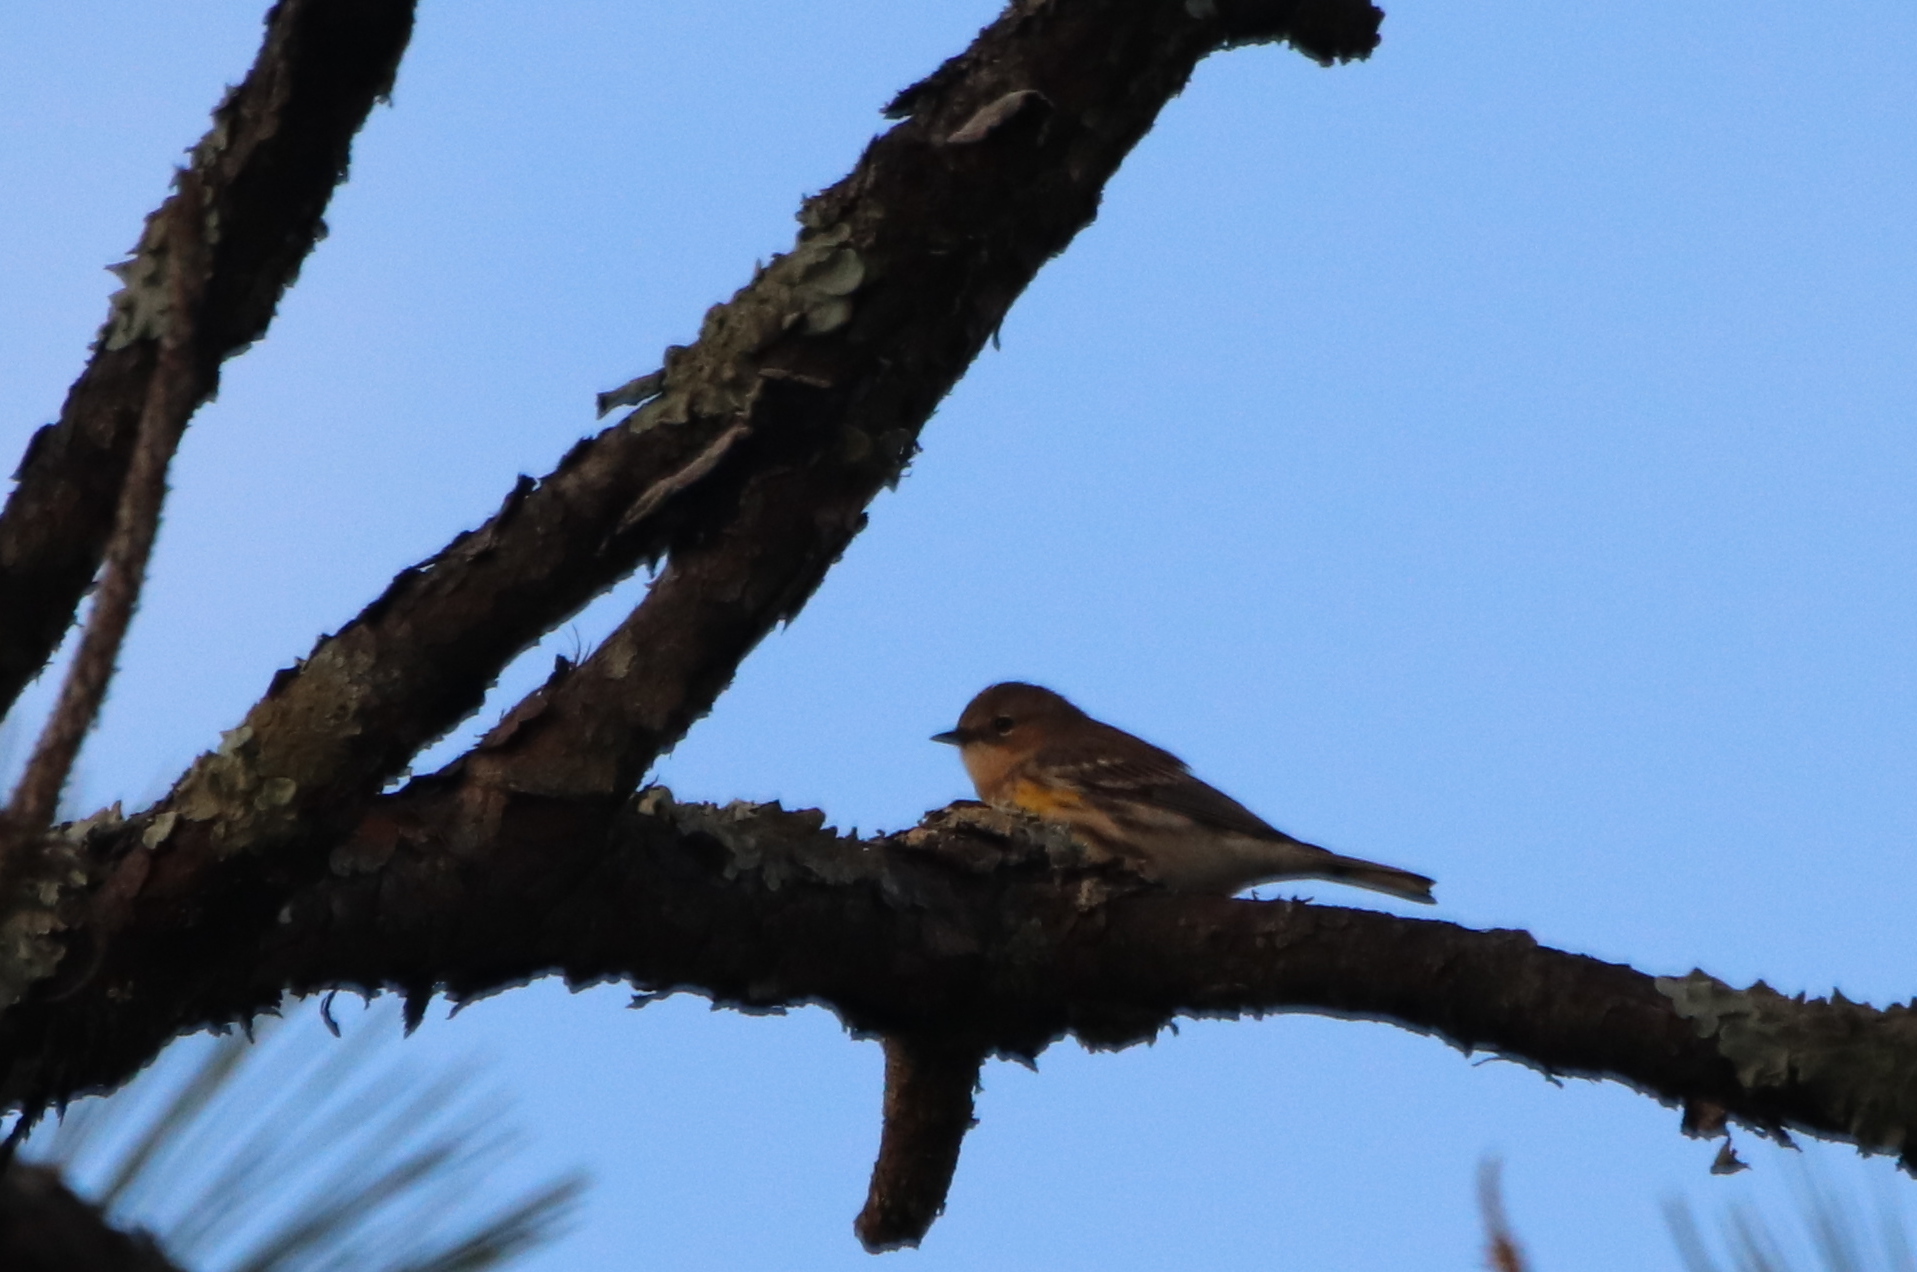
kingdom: Animalia
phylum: Chordata
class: Aves
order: Passeriformes
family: Parulidae
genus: Setophaga
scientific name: Setophaga coronata
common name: Myrtle warbler
